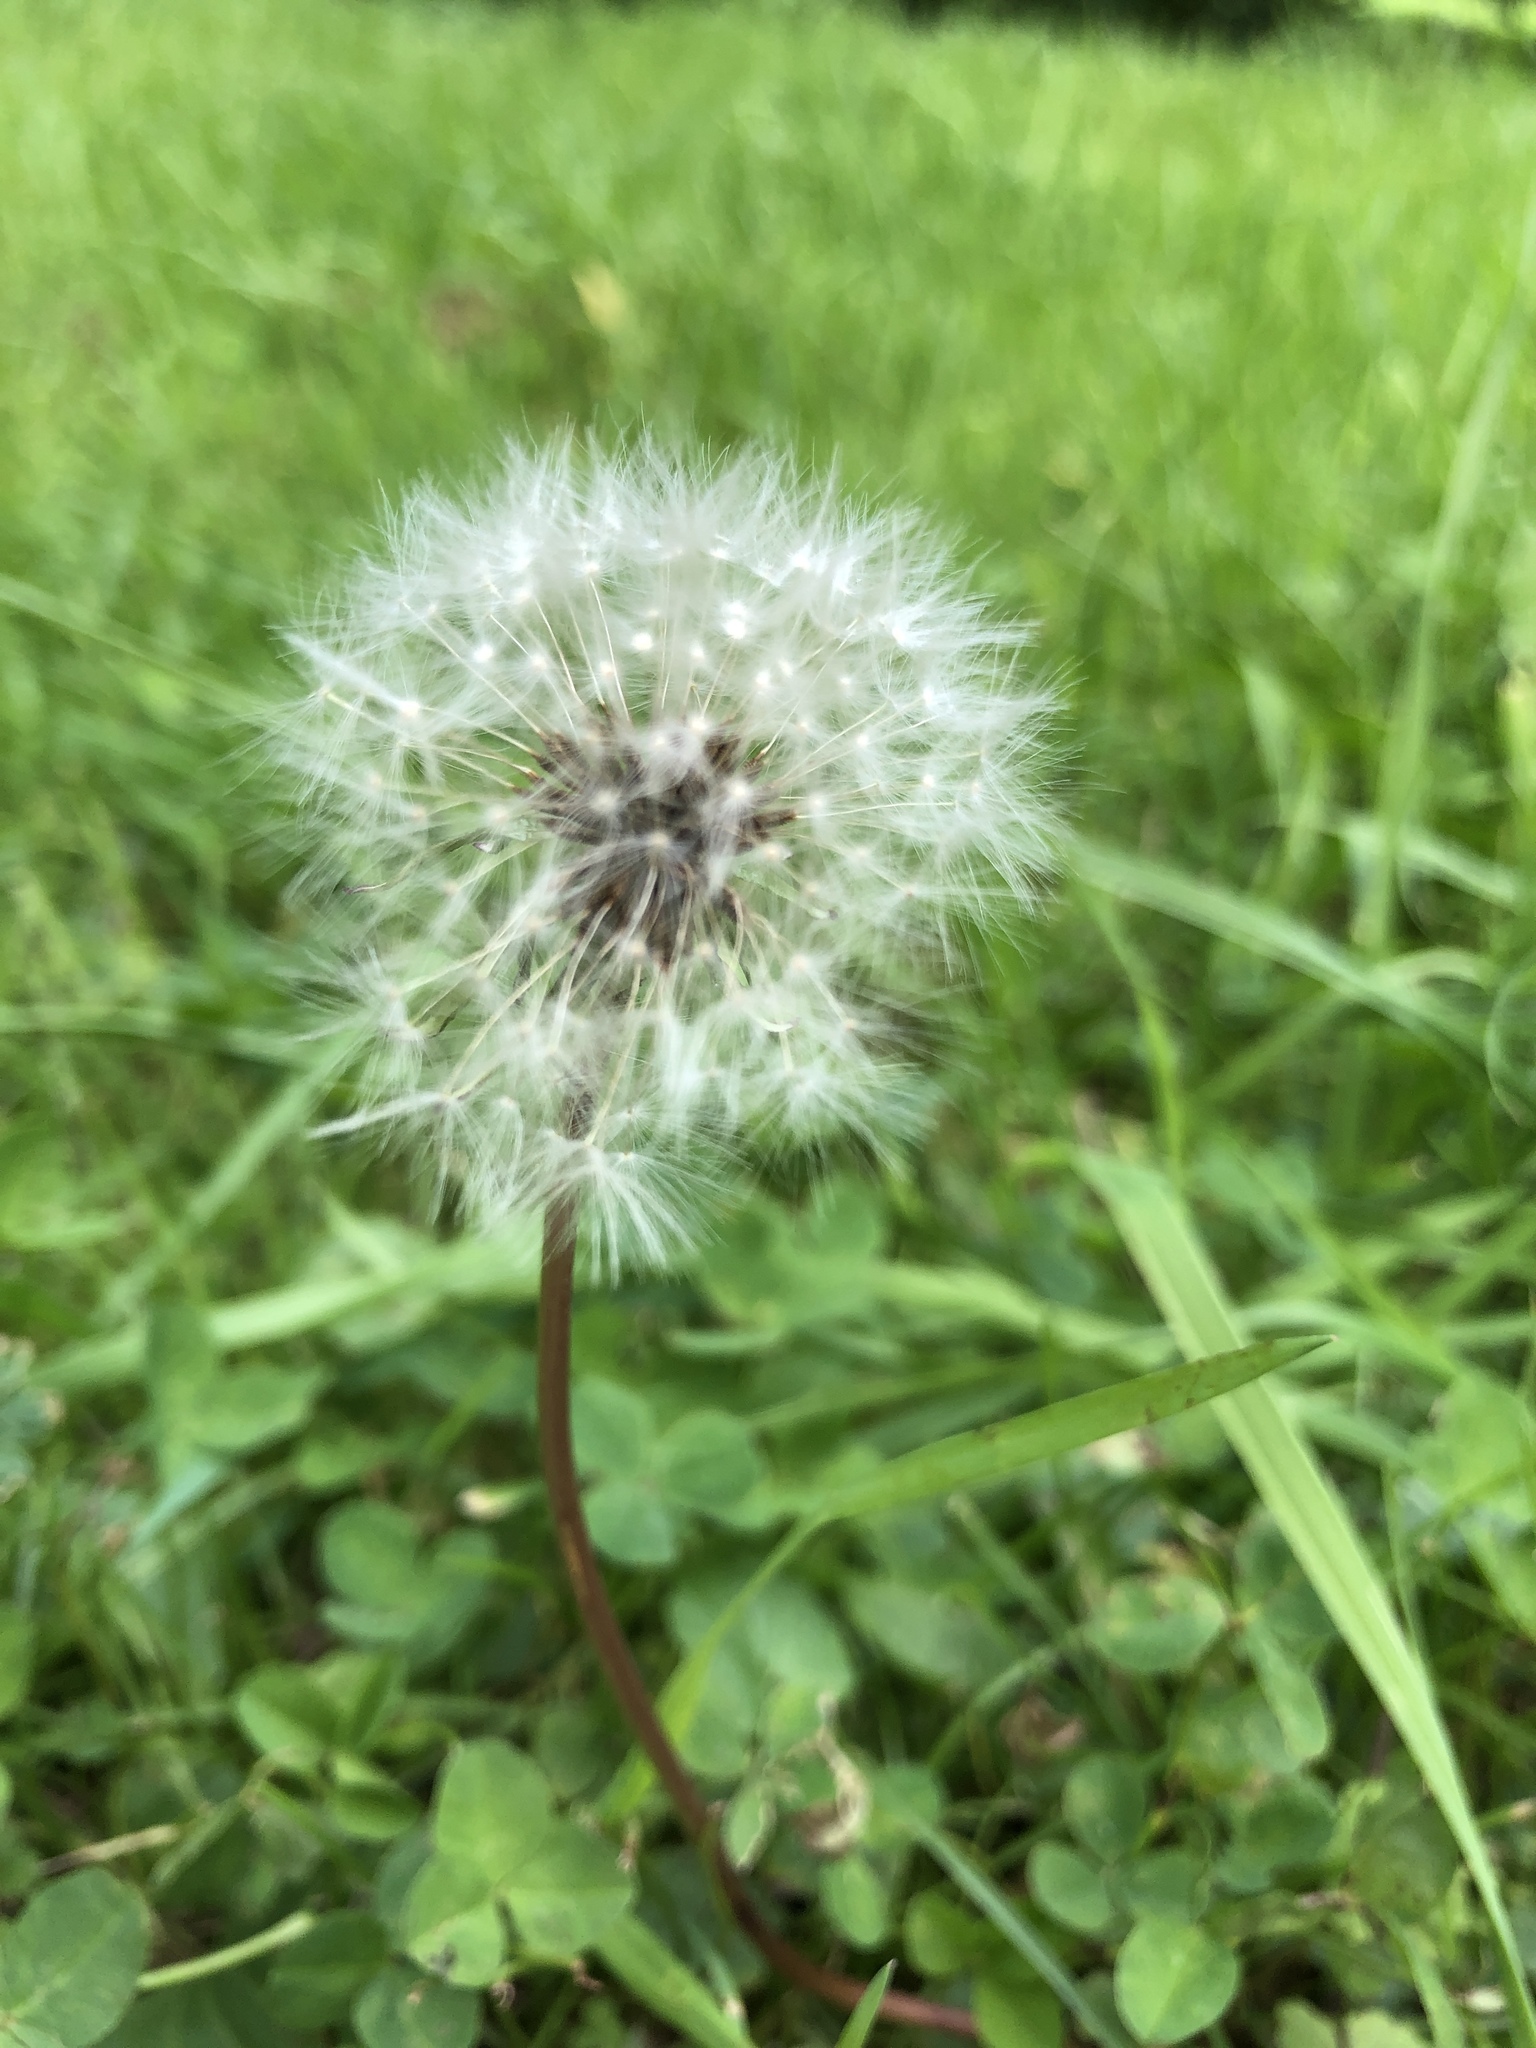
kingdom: Plantae
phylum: Tracheophyta
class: Magnoliopsida
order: Asterales
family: Asteraceae
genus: Taraxacum
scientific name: Taraxacum officinale
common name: Common dandelion
